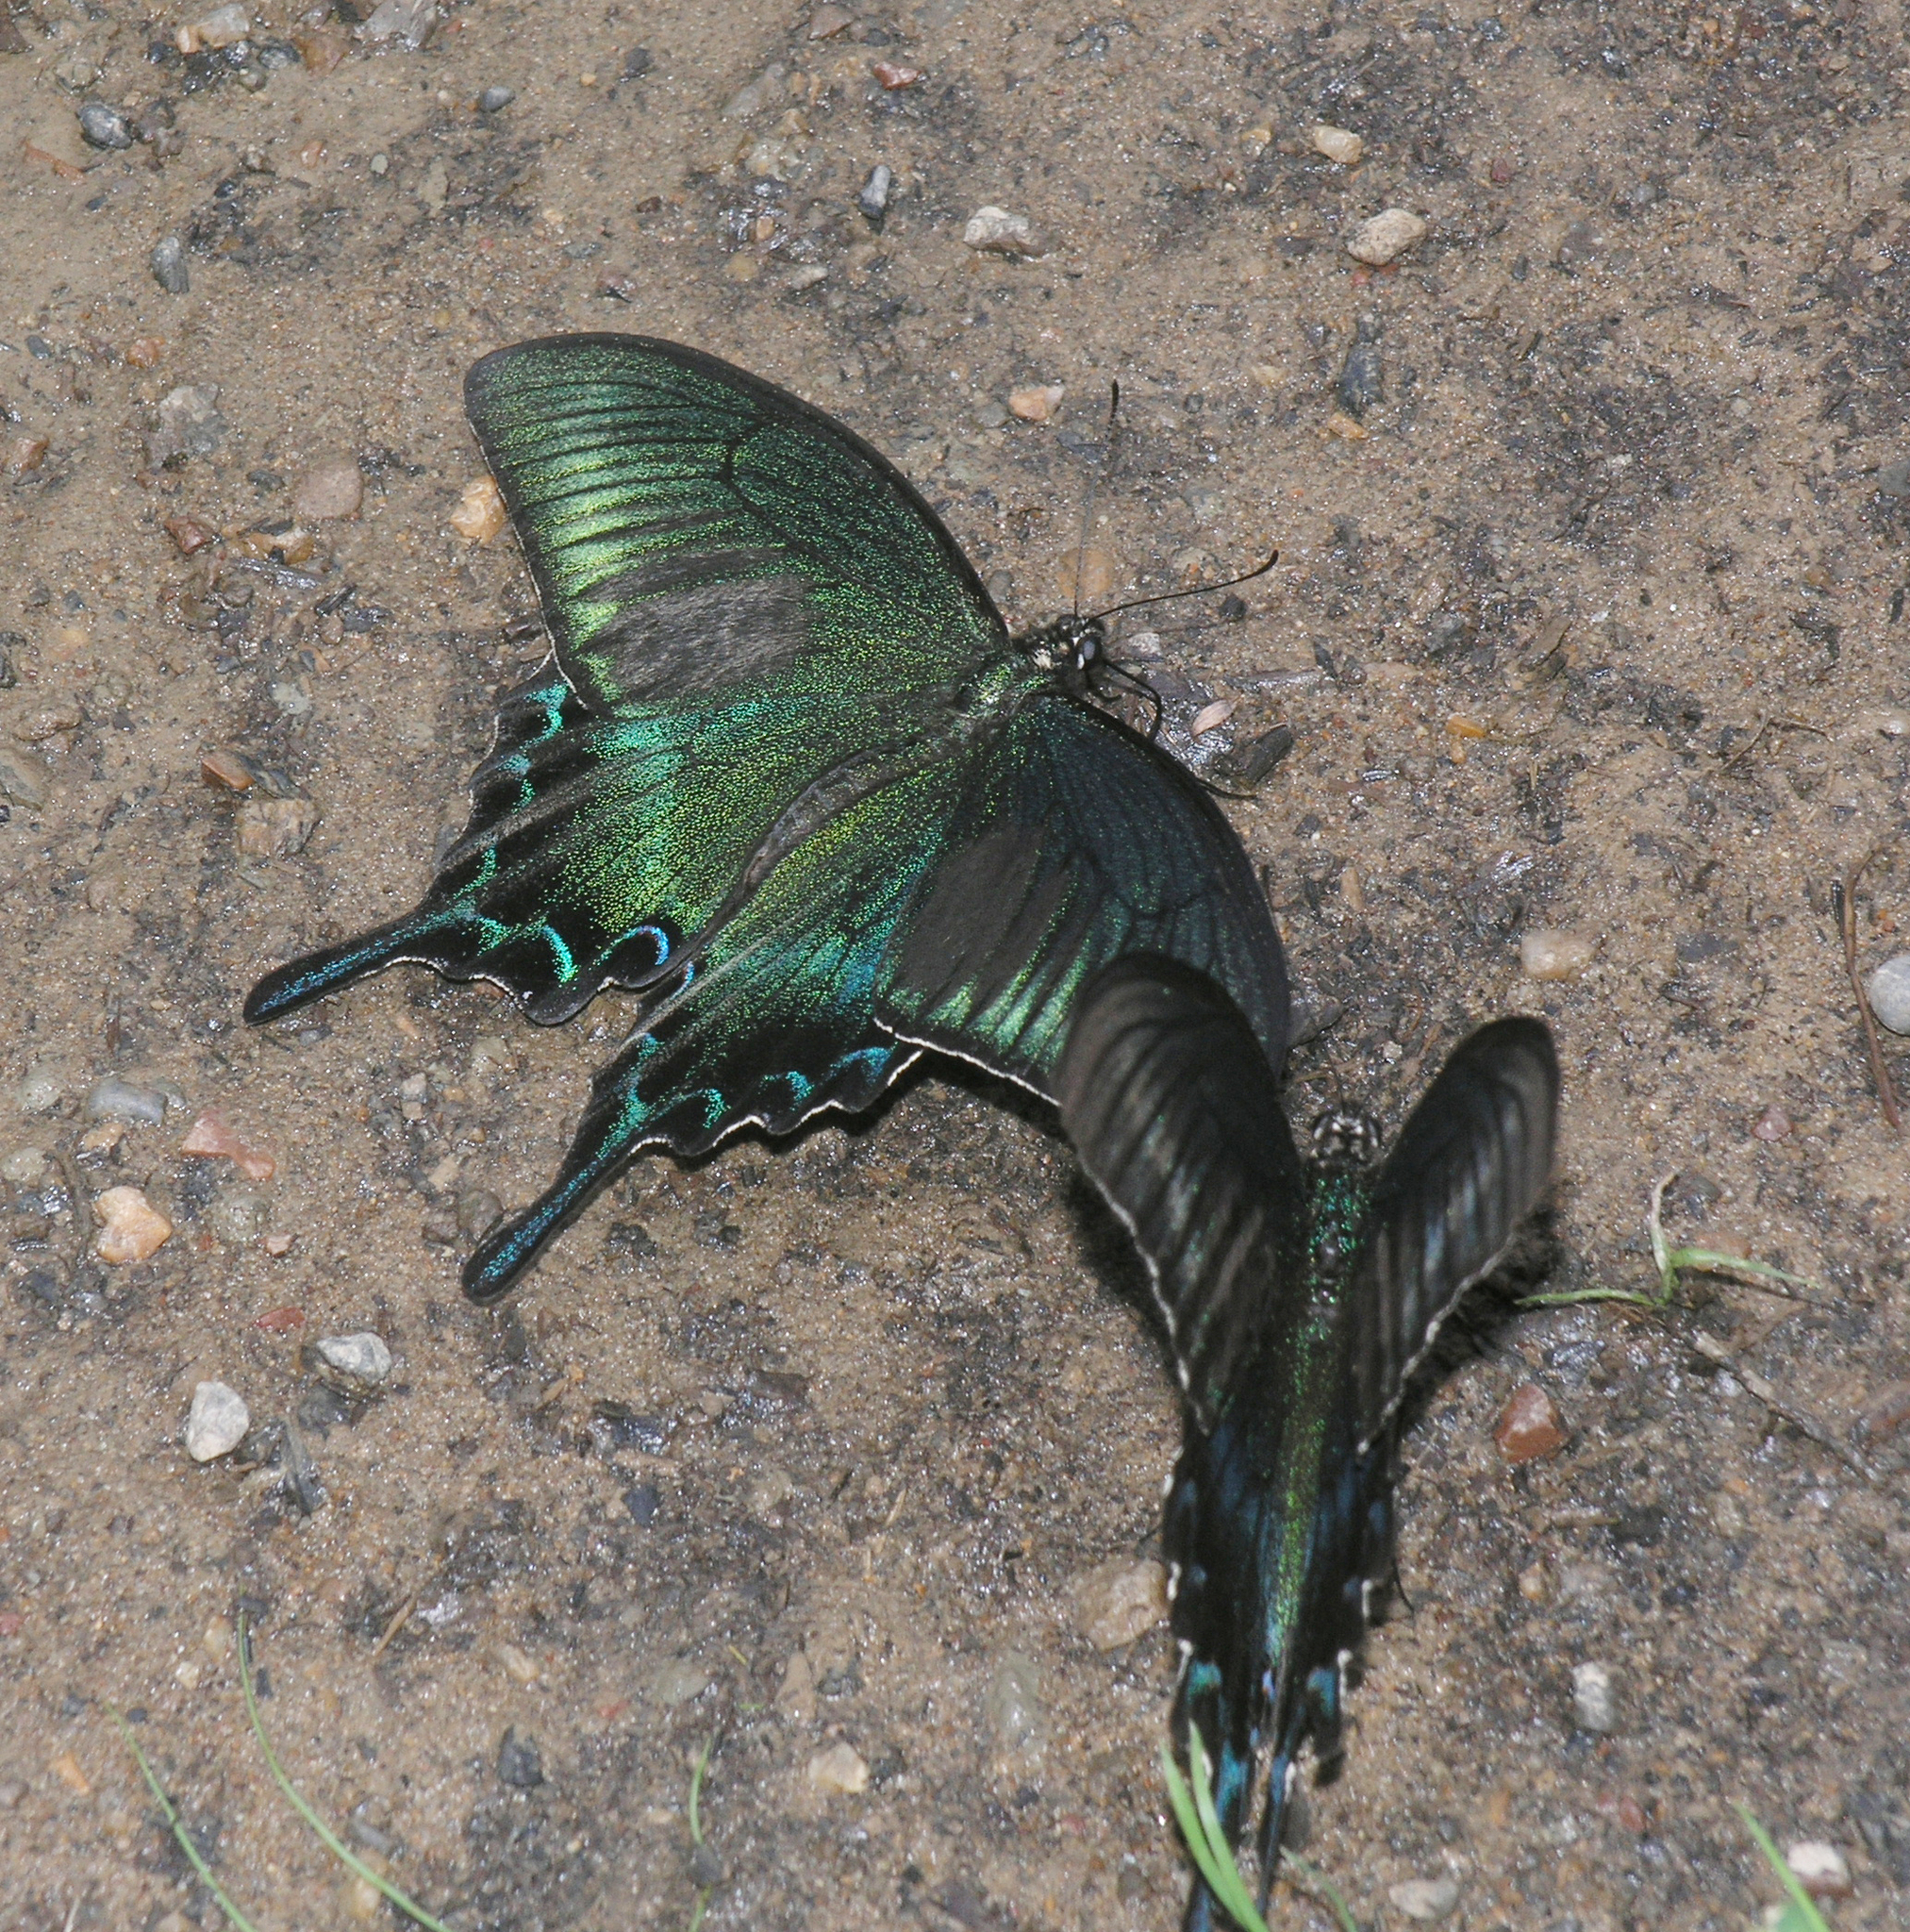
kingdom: Animalia
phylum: Arthropoda
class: Insecta
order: Lepidoptera
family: Papilionidae
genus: Papilio
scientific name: Papilio maackii
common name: Alpine black swallowtail
